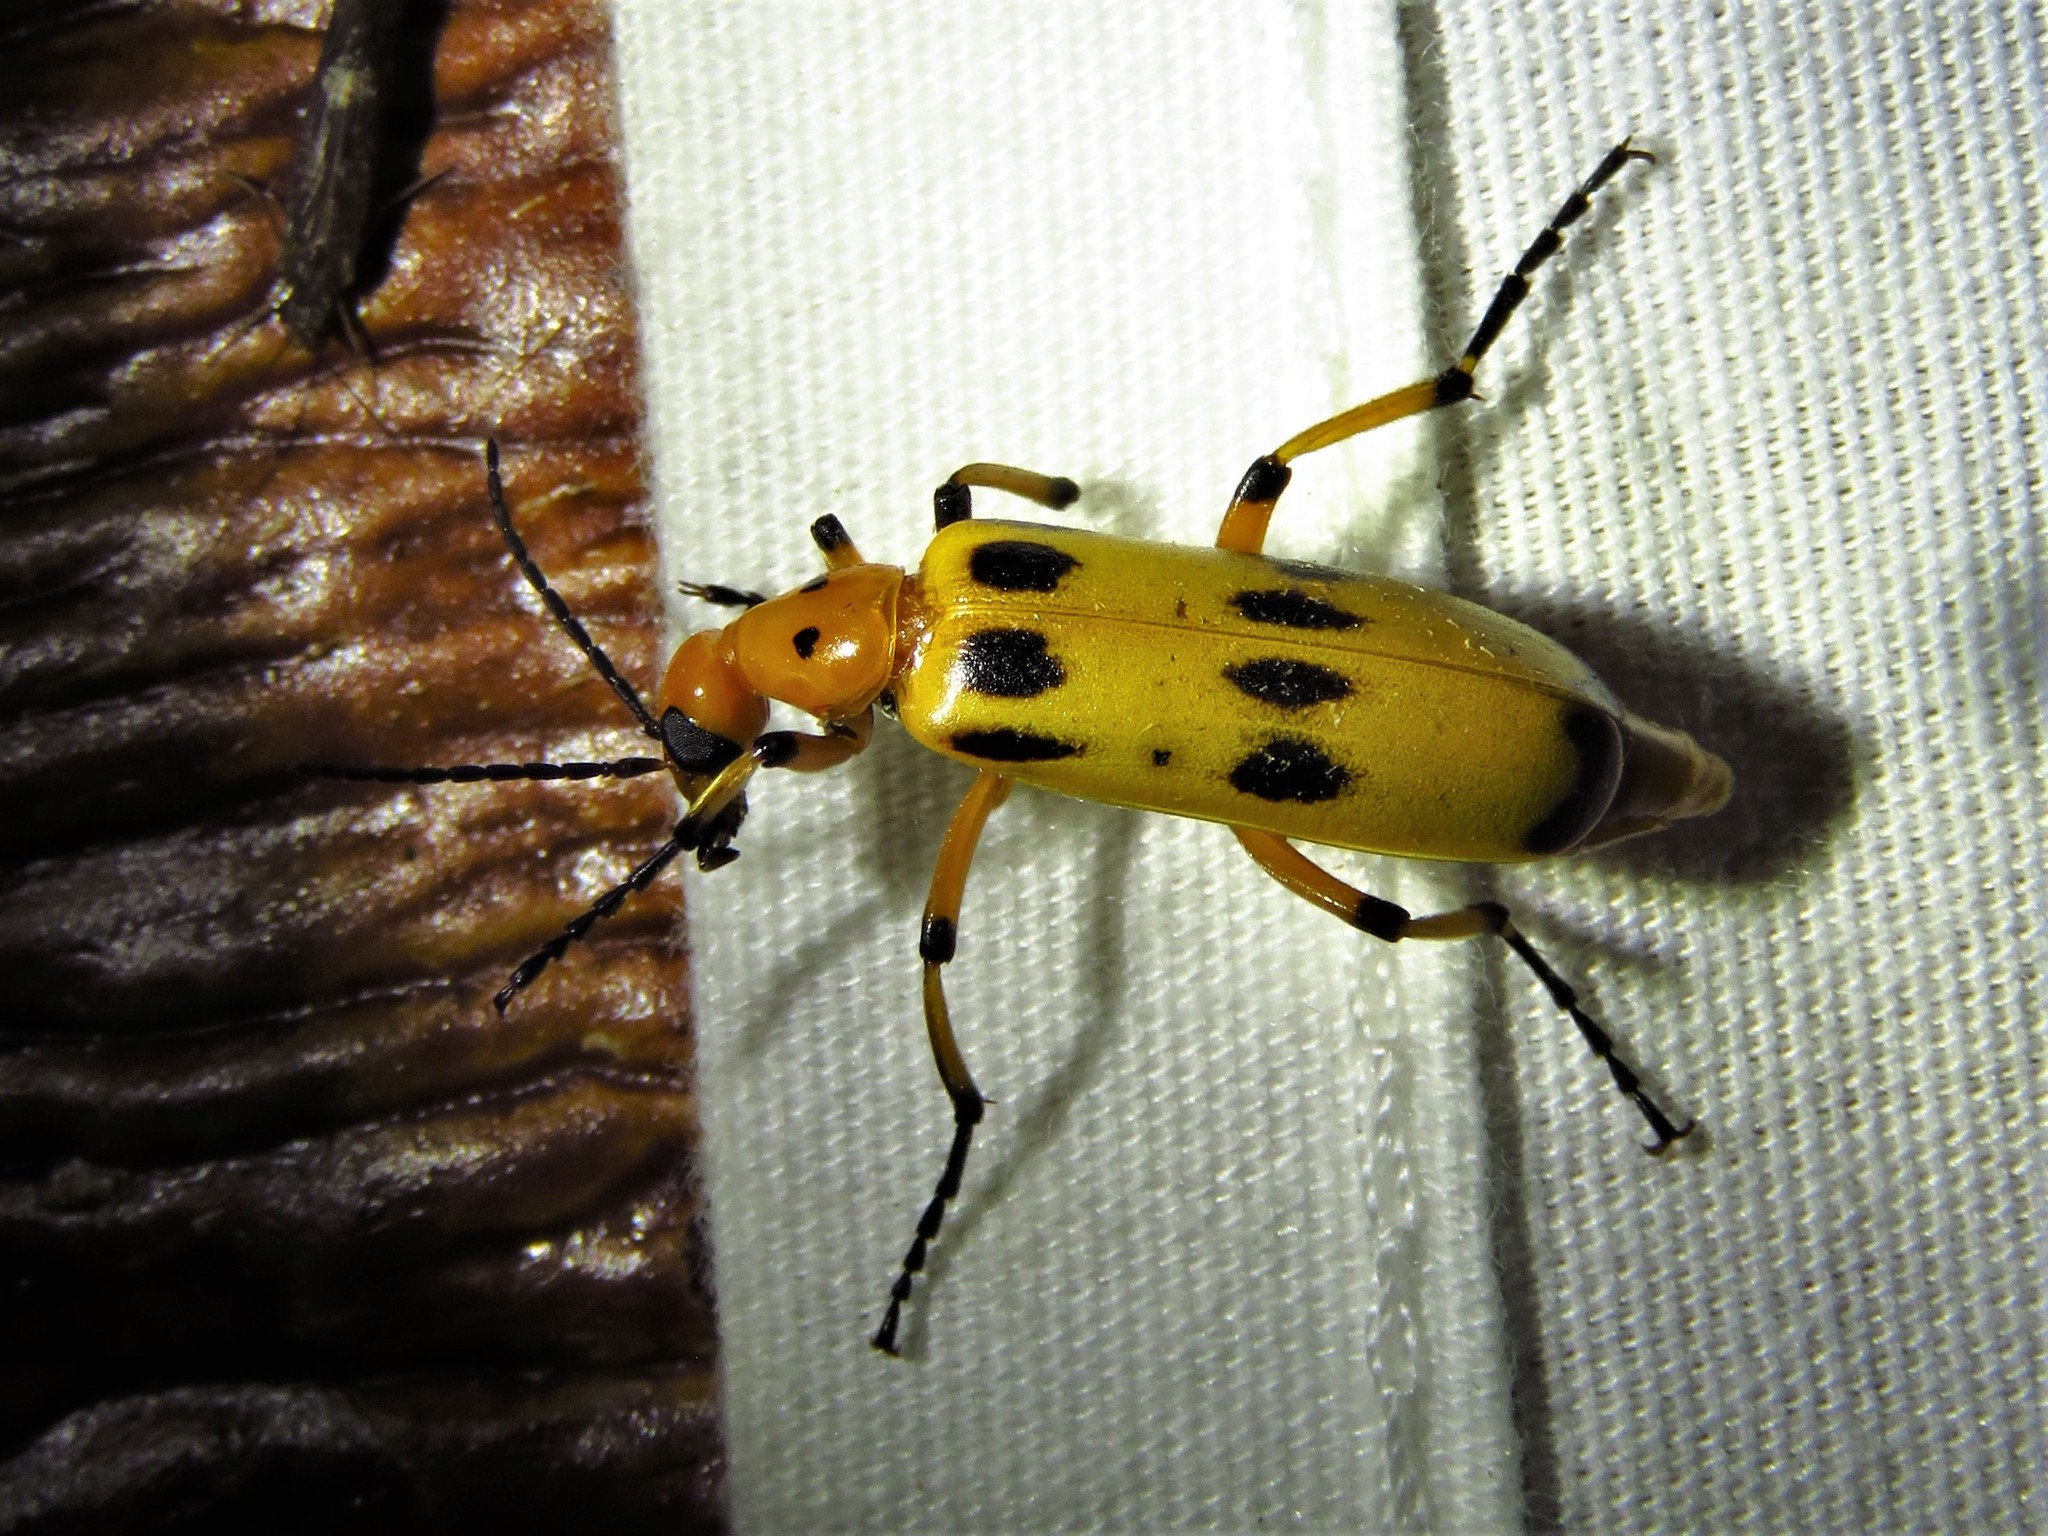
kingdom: Animalia
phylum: Arthropoda
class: Insecta
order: Coleoptera
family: Meloidae
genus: Pyrota
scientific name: Pyrota fasciata
